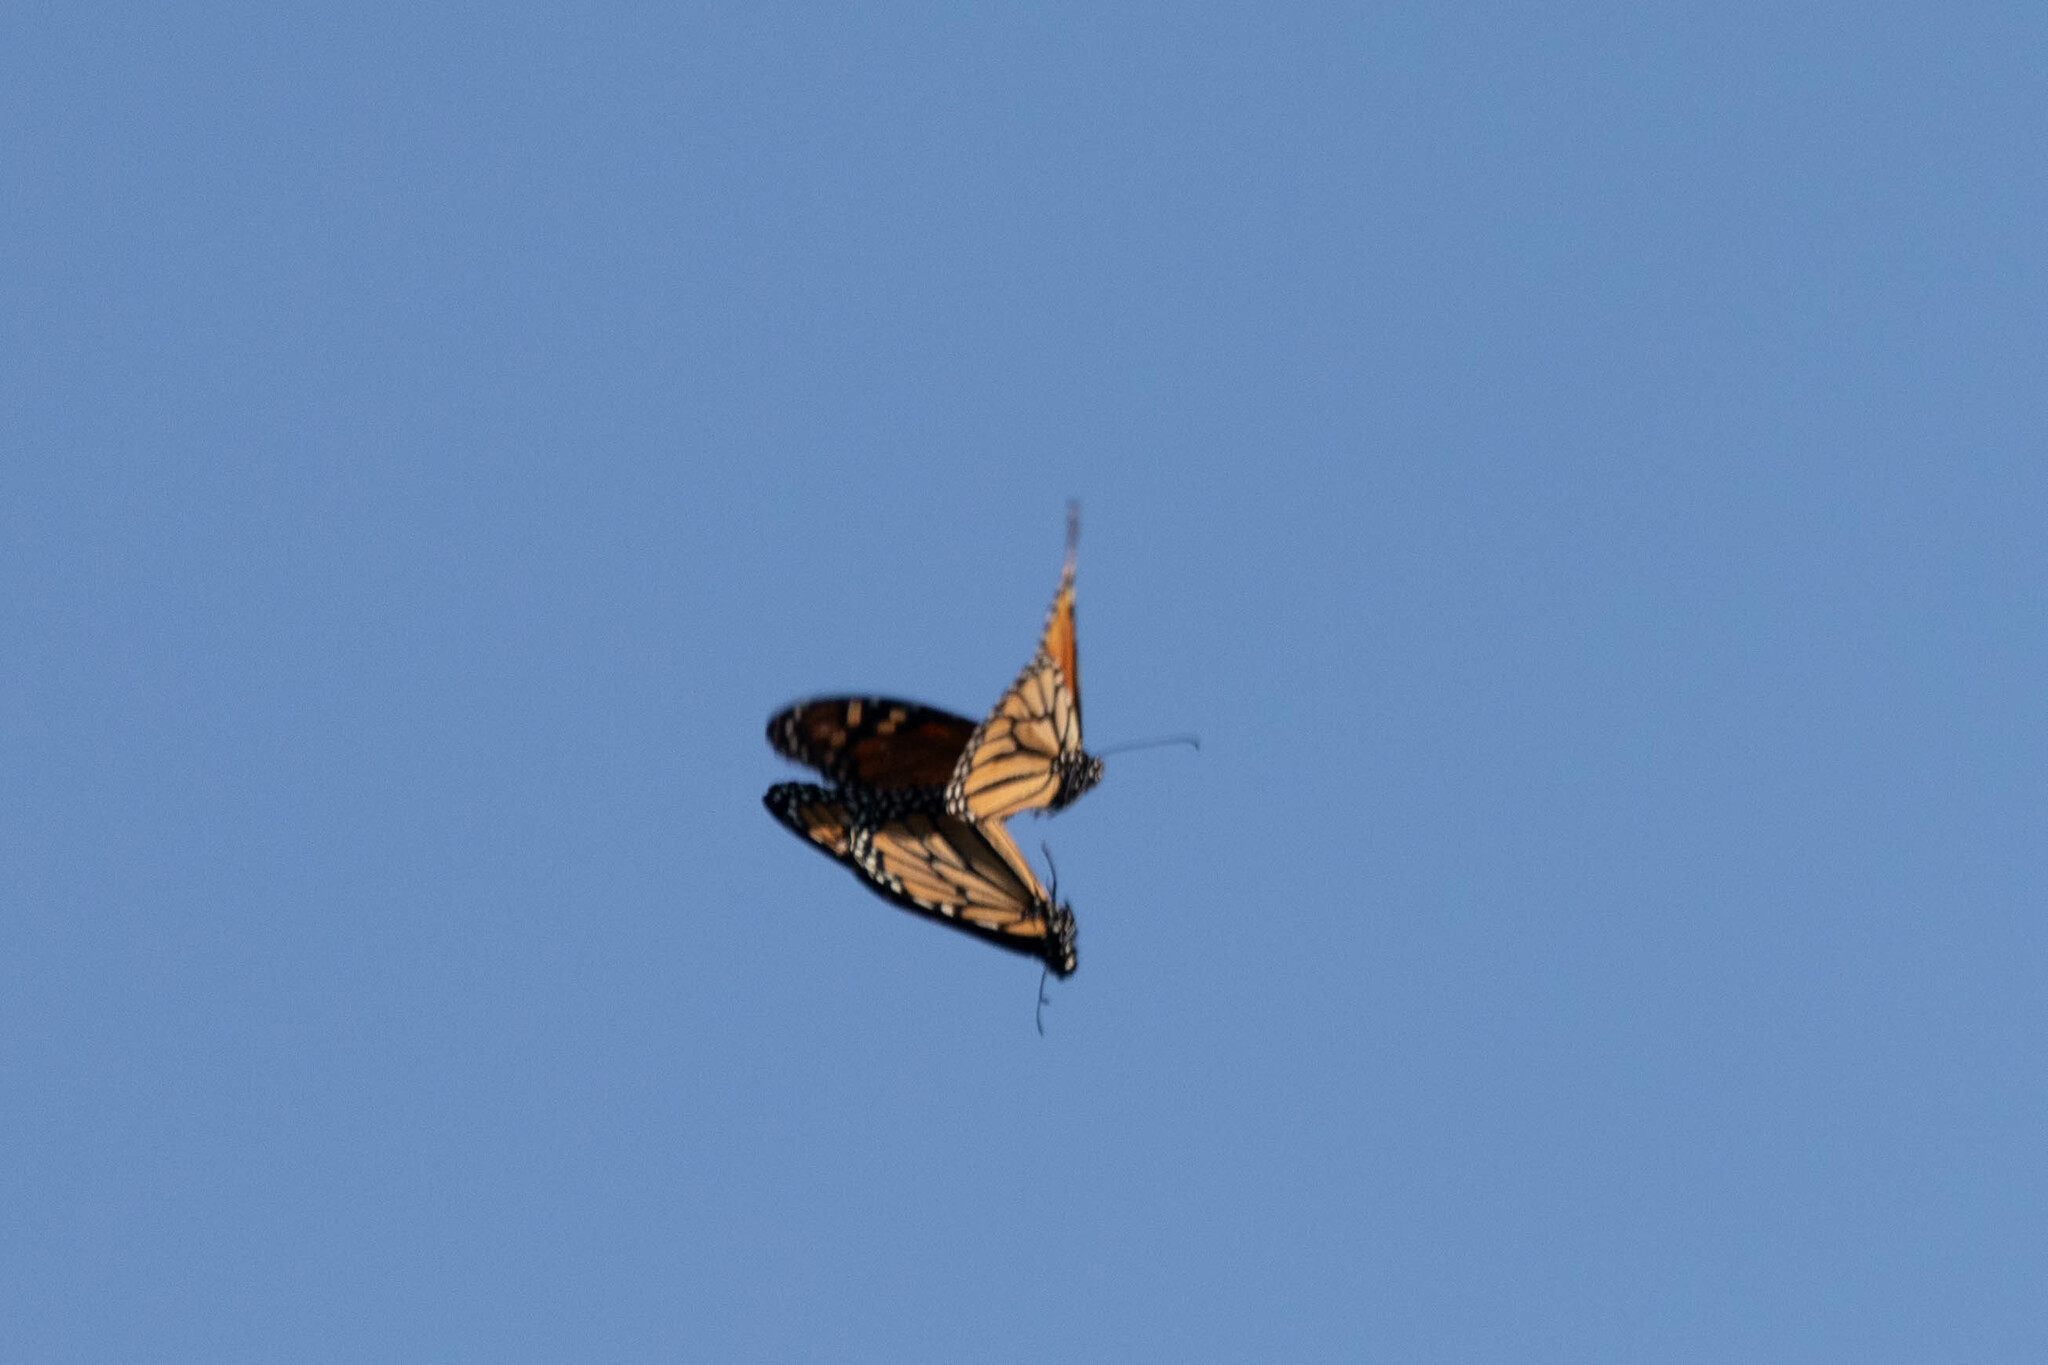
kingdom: Animalia
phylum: Arthropoda
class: Insecta
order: Lepidoptera
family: Nymphalidae
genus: Danaus
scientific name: Danaus plexippus
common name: Monarch
